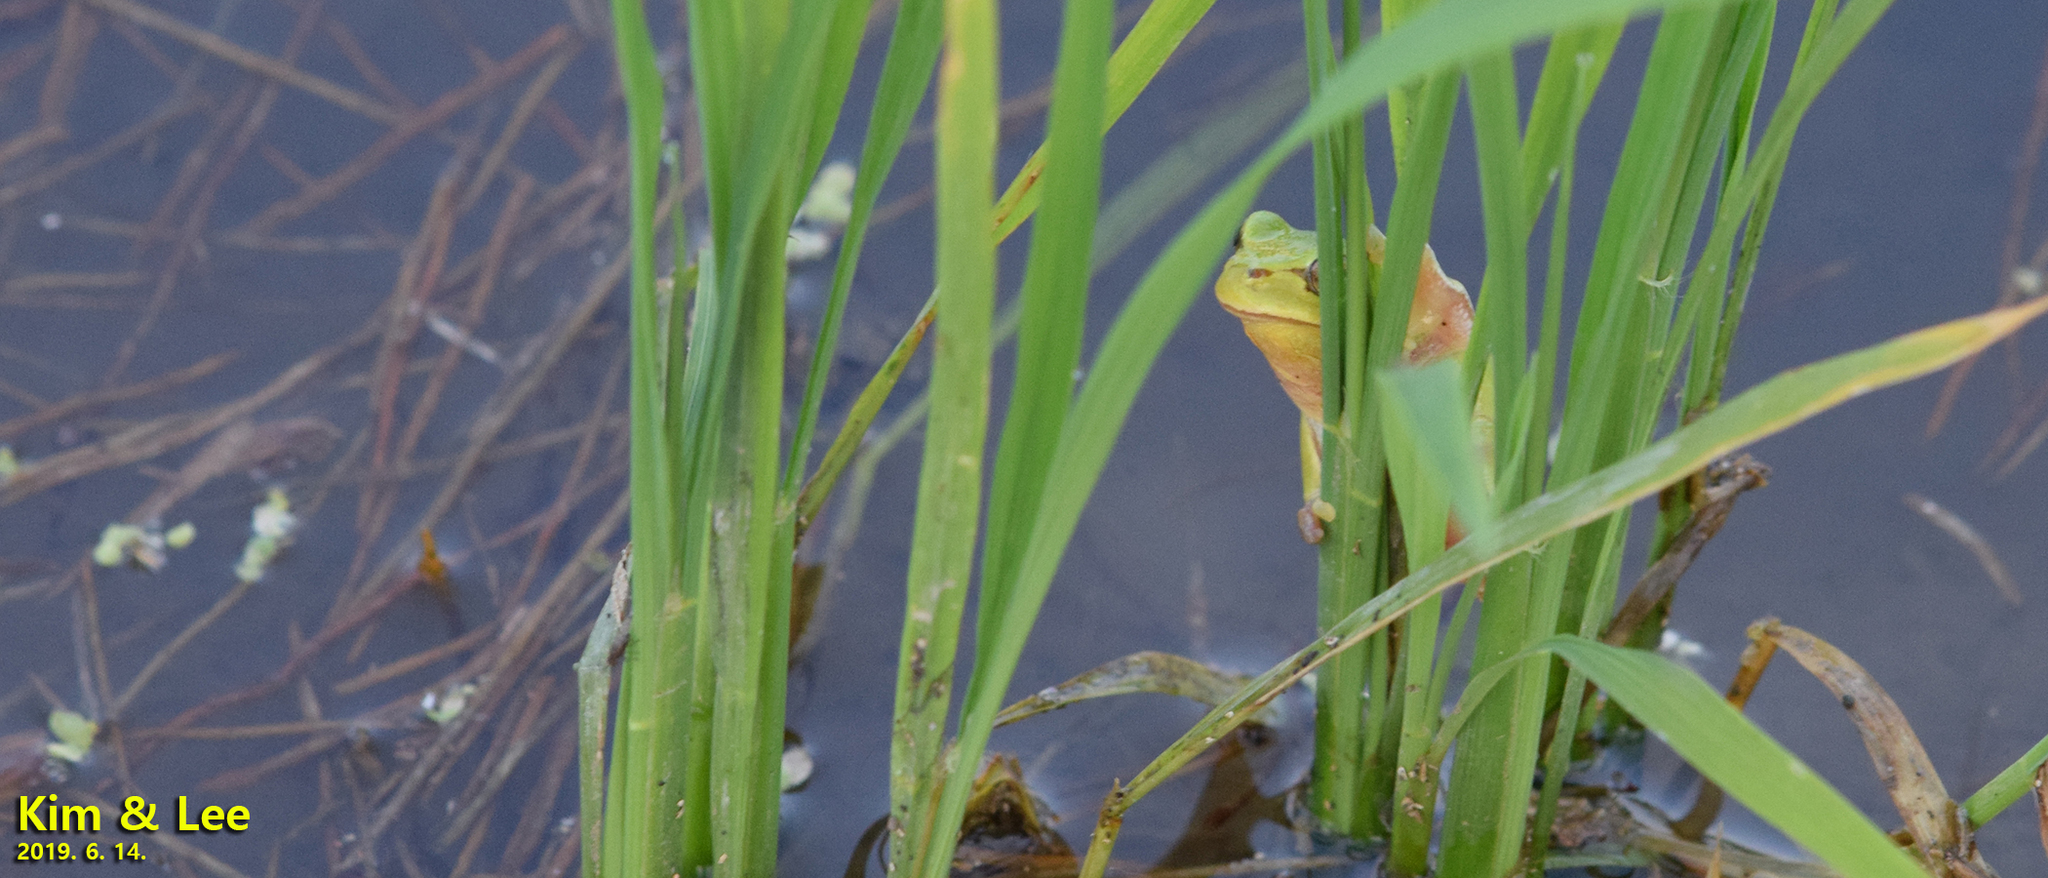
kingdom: Animalia
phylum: Chordata
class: Amphibia
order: Anura
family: Hylidae
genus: Dryophytes
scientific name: Dryophytes immaculatus
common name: North china treefrog
